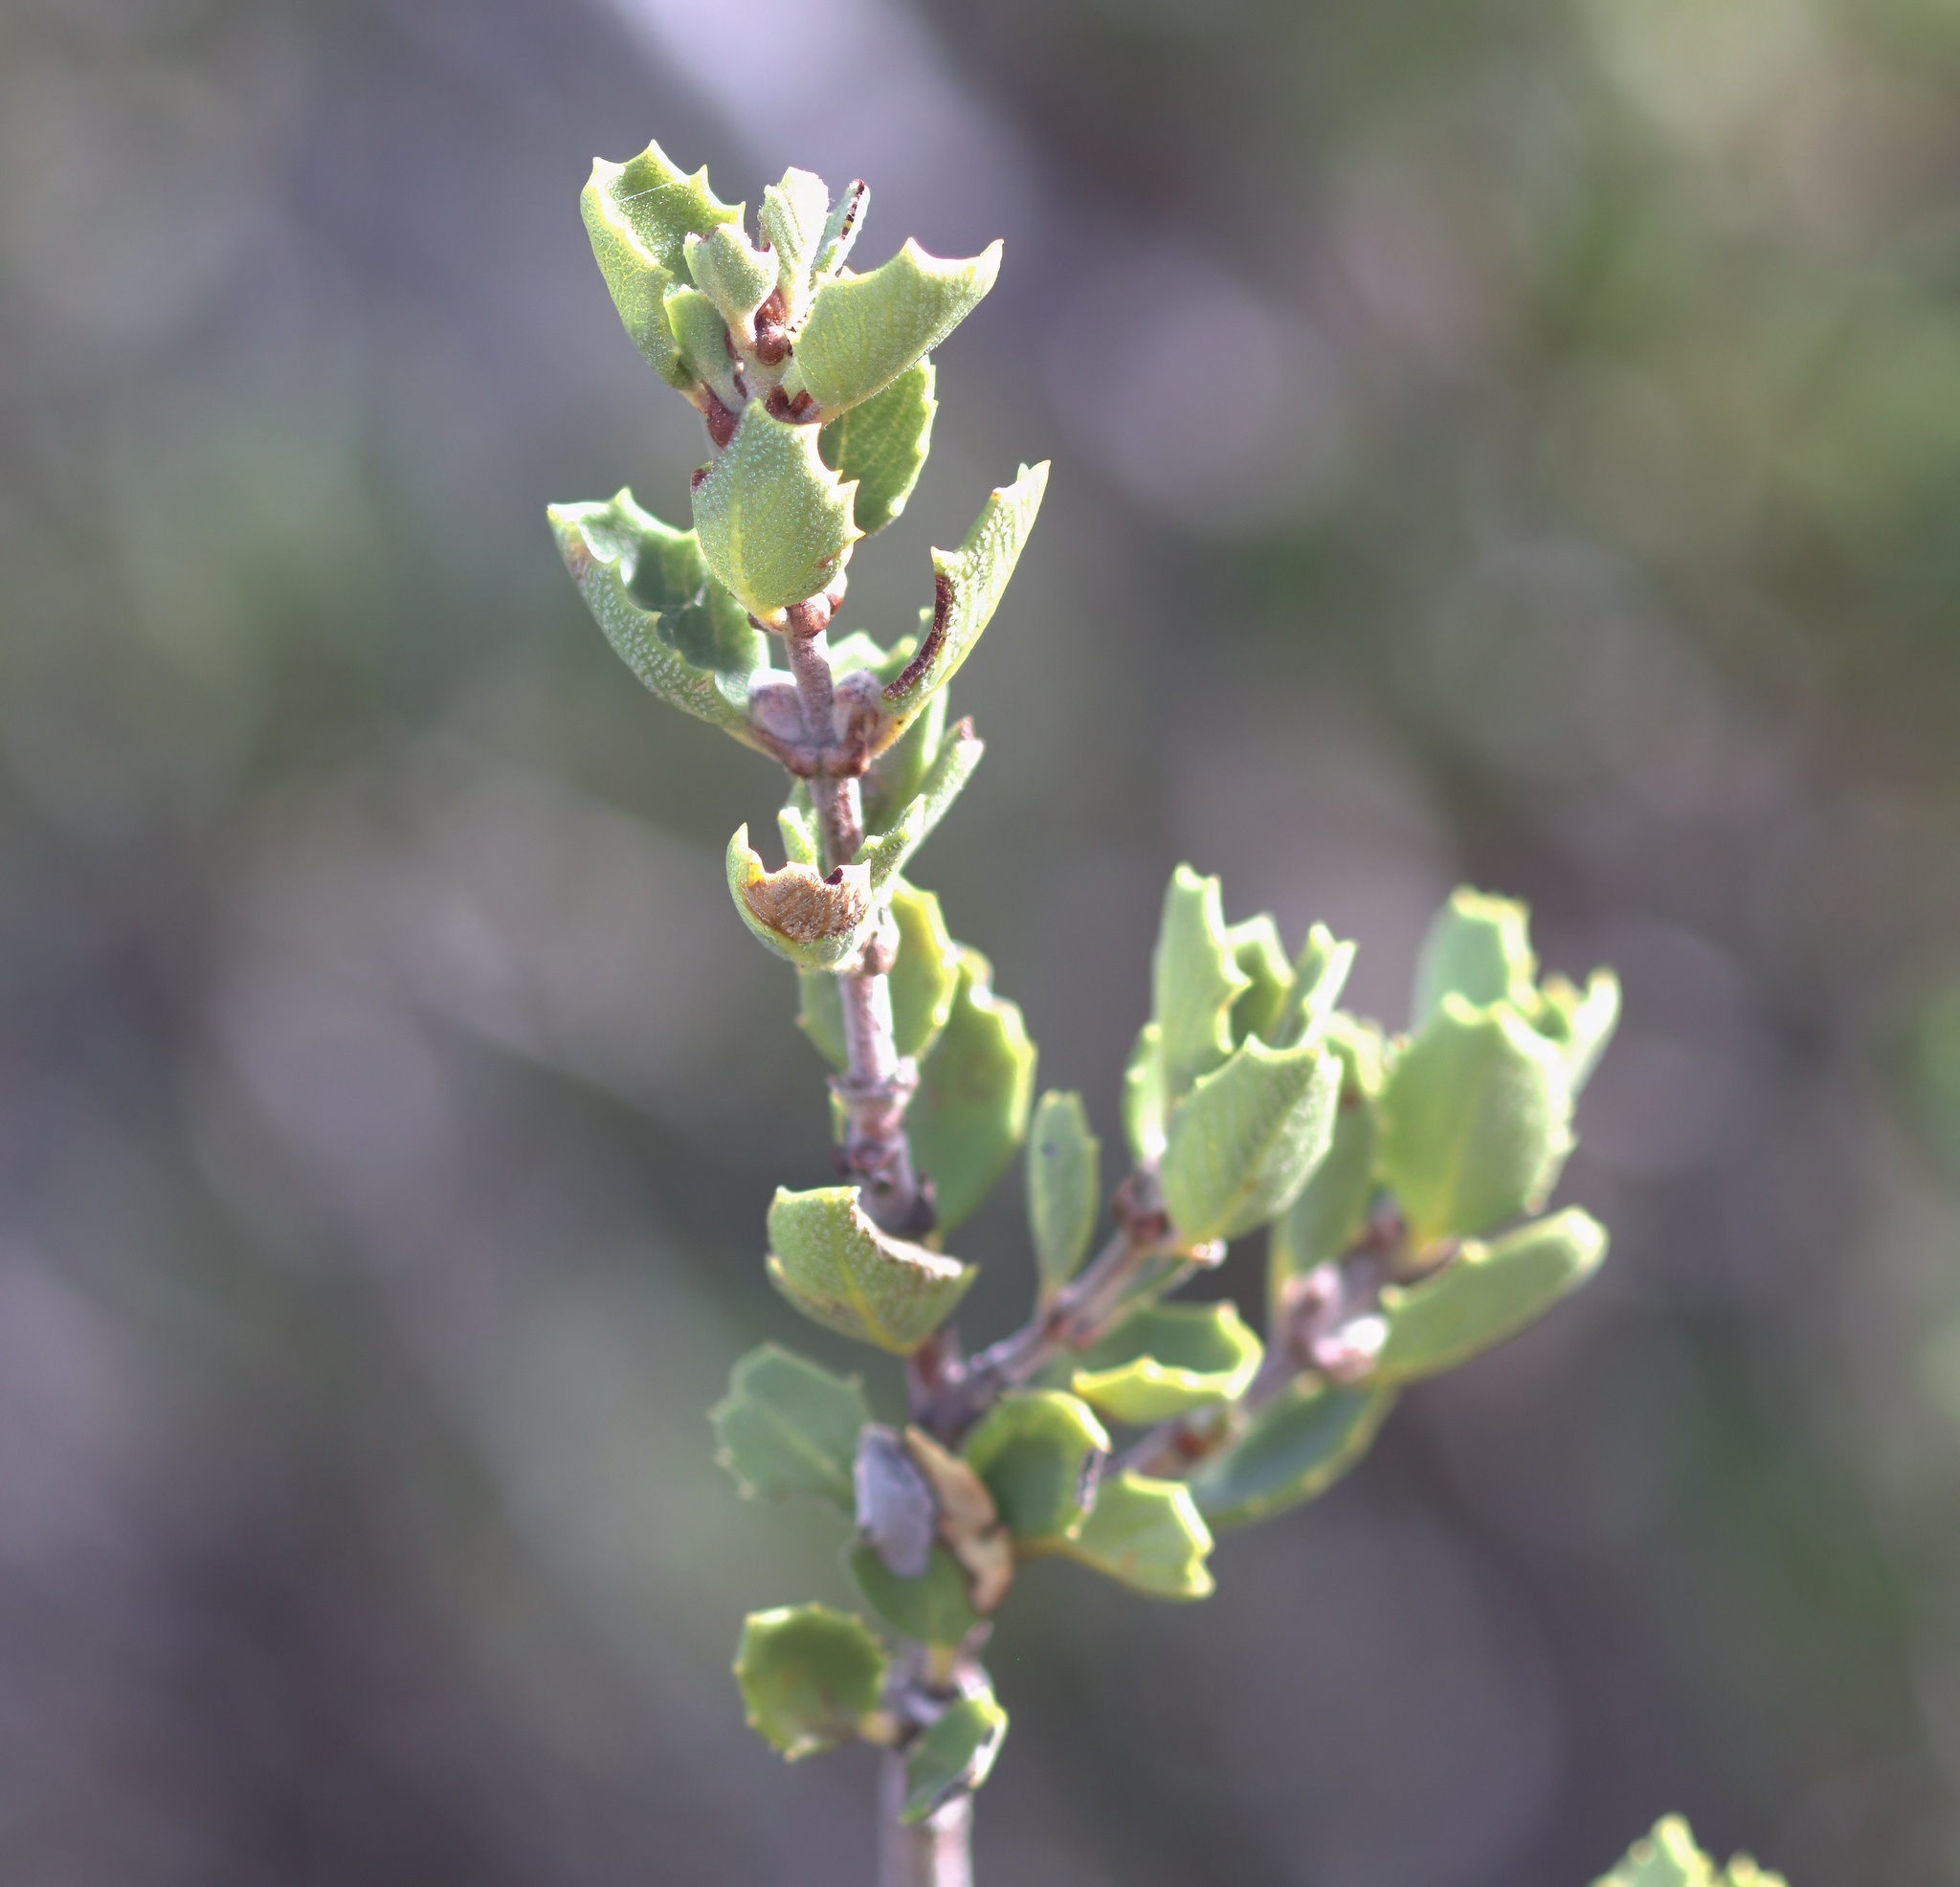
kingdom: Plantae
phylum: Tracheophyta
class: Magnoliopsida
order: Rosales
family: Rhamnaceae
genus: Ceanothus
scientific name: Ceanothus perplexans
